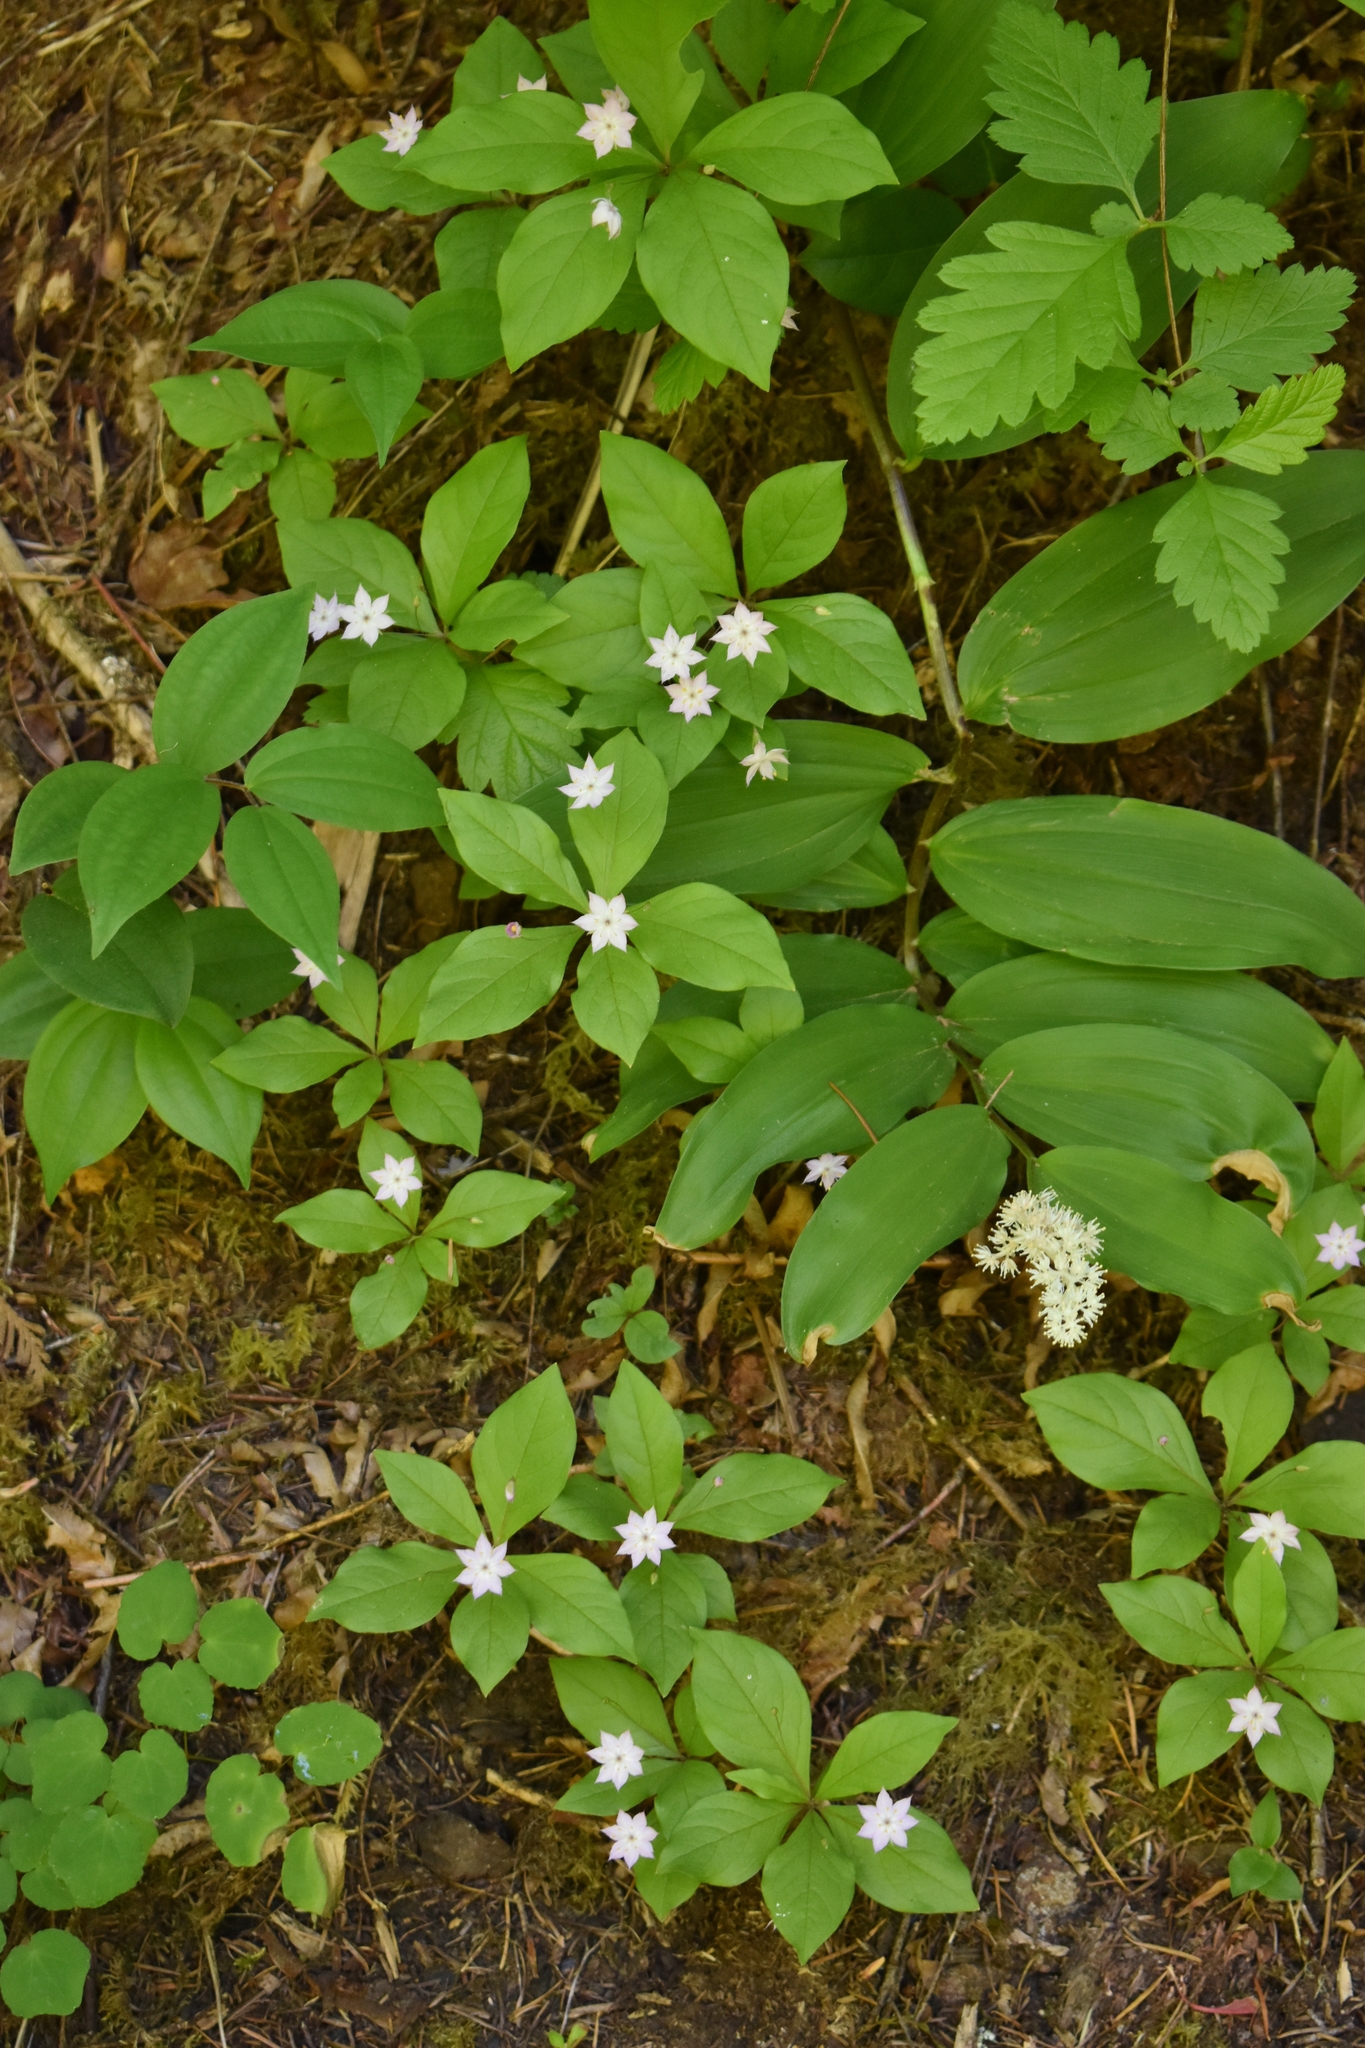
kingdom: Plantae
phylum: Tracheophyta
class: Magnoliopsida
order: Ericales
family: Primulaceae
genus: Lysimachia
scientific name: Lysimachia latifolia
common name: Pacific starflower
